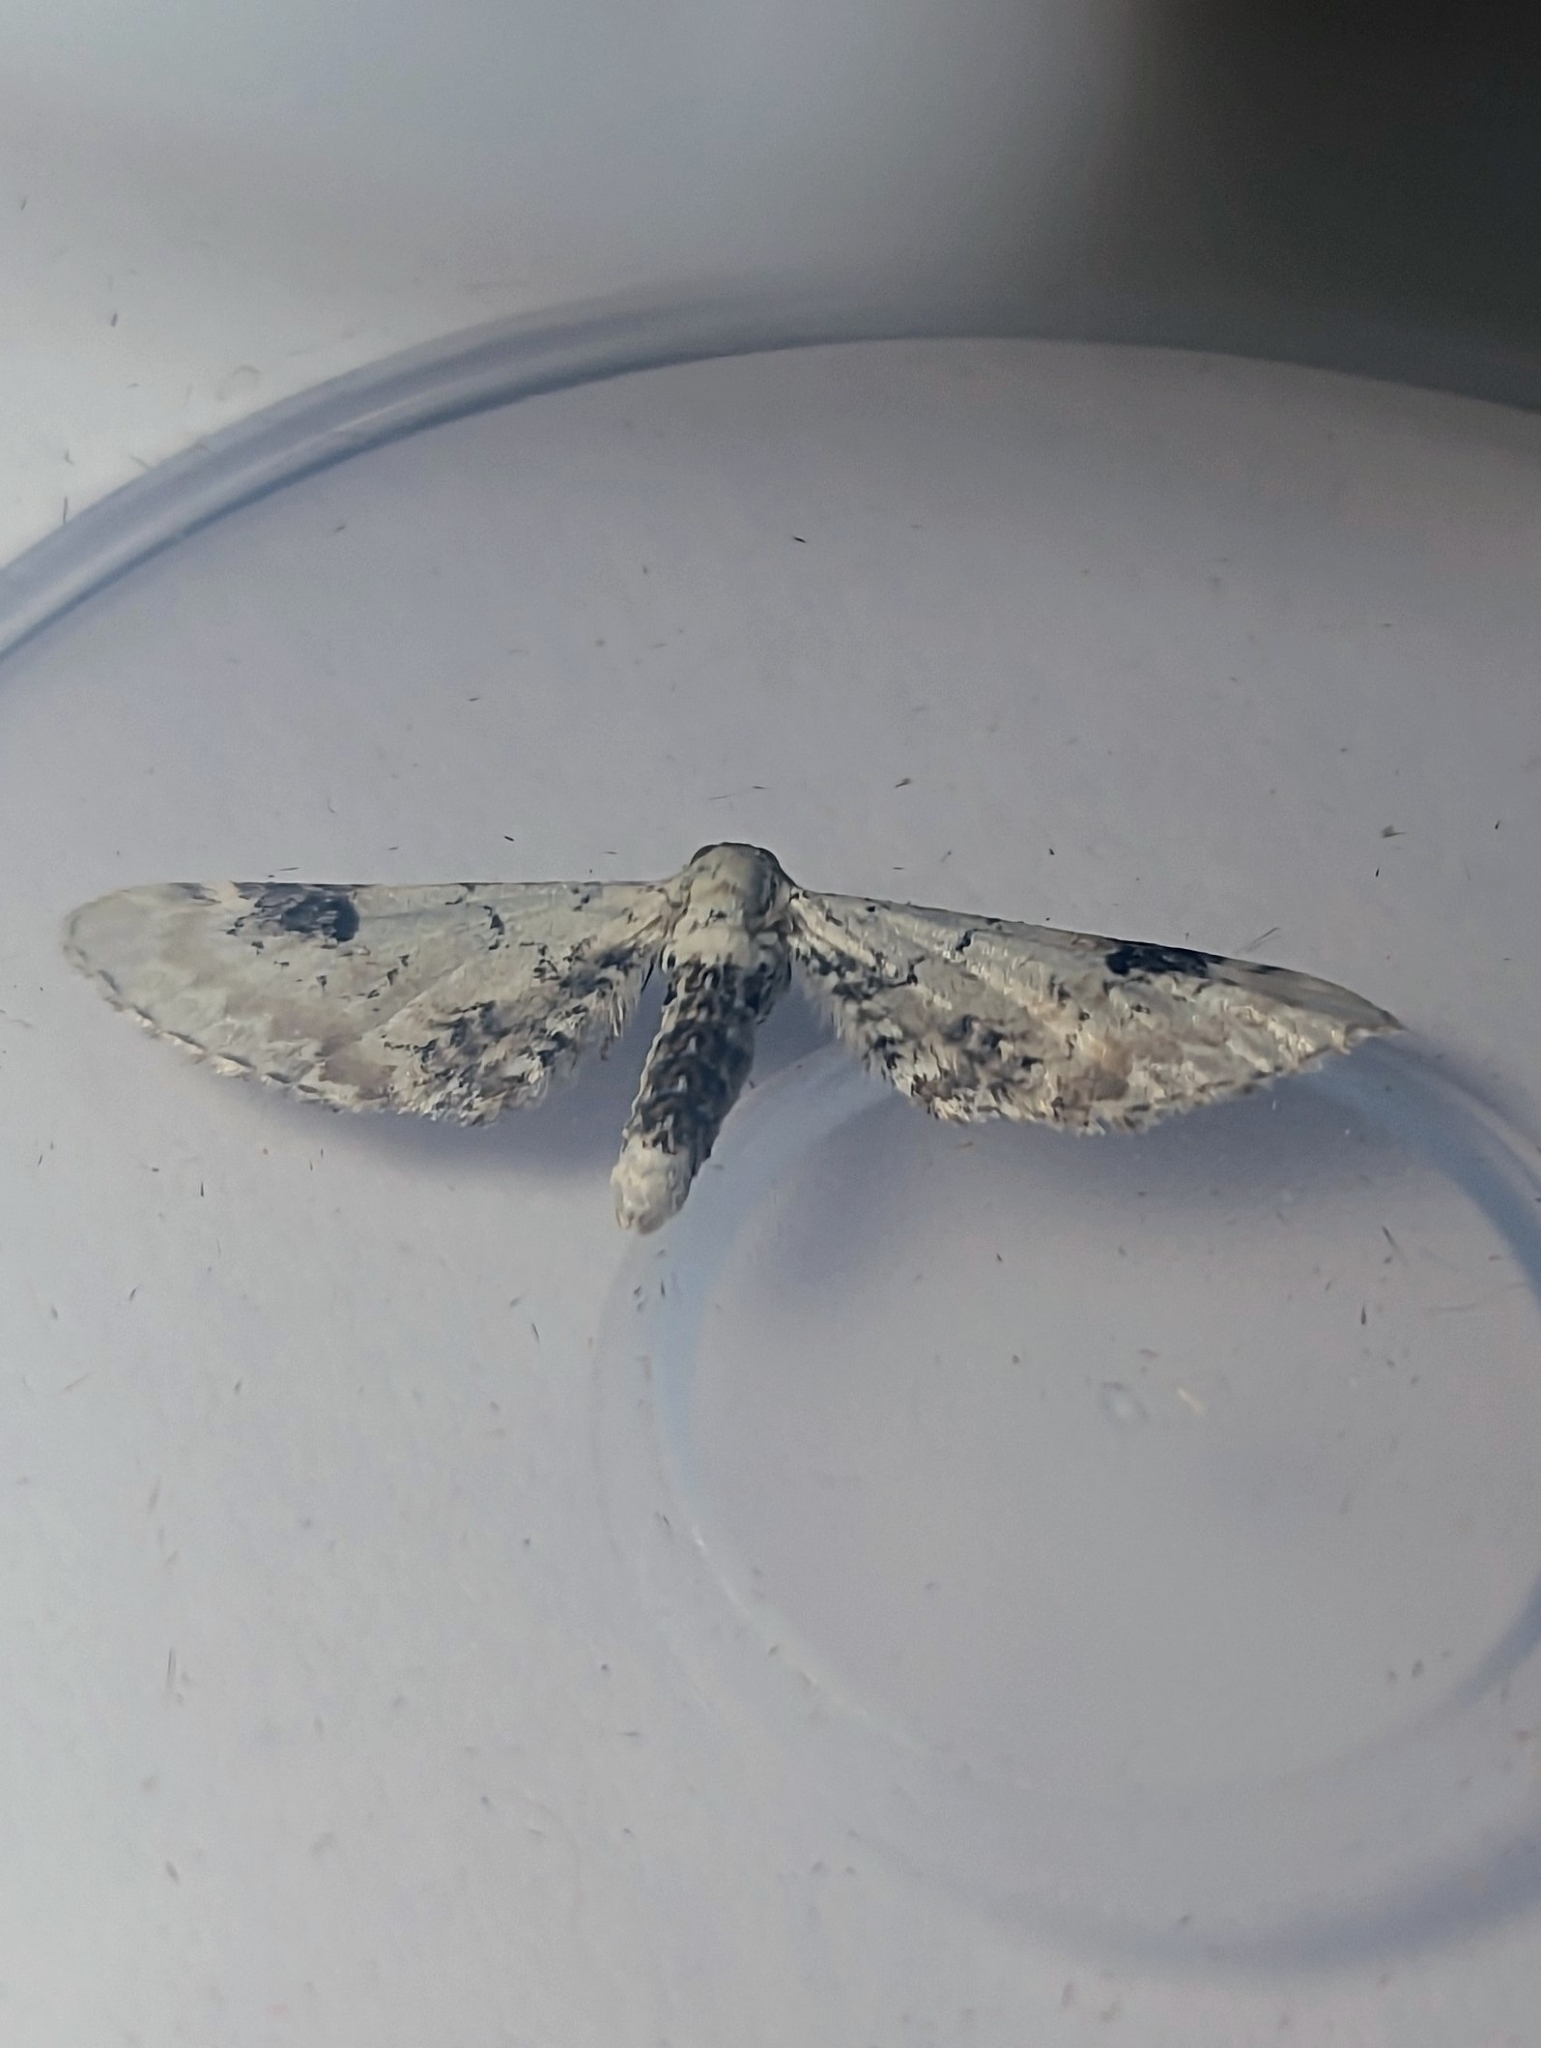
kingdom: Animalia
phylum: Arthropoda
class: Insecta
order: Lepidoptera
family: Geometridae
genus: Eupithecia
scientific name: Eupithecia centaureata
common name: Lime-speck pug
